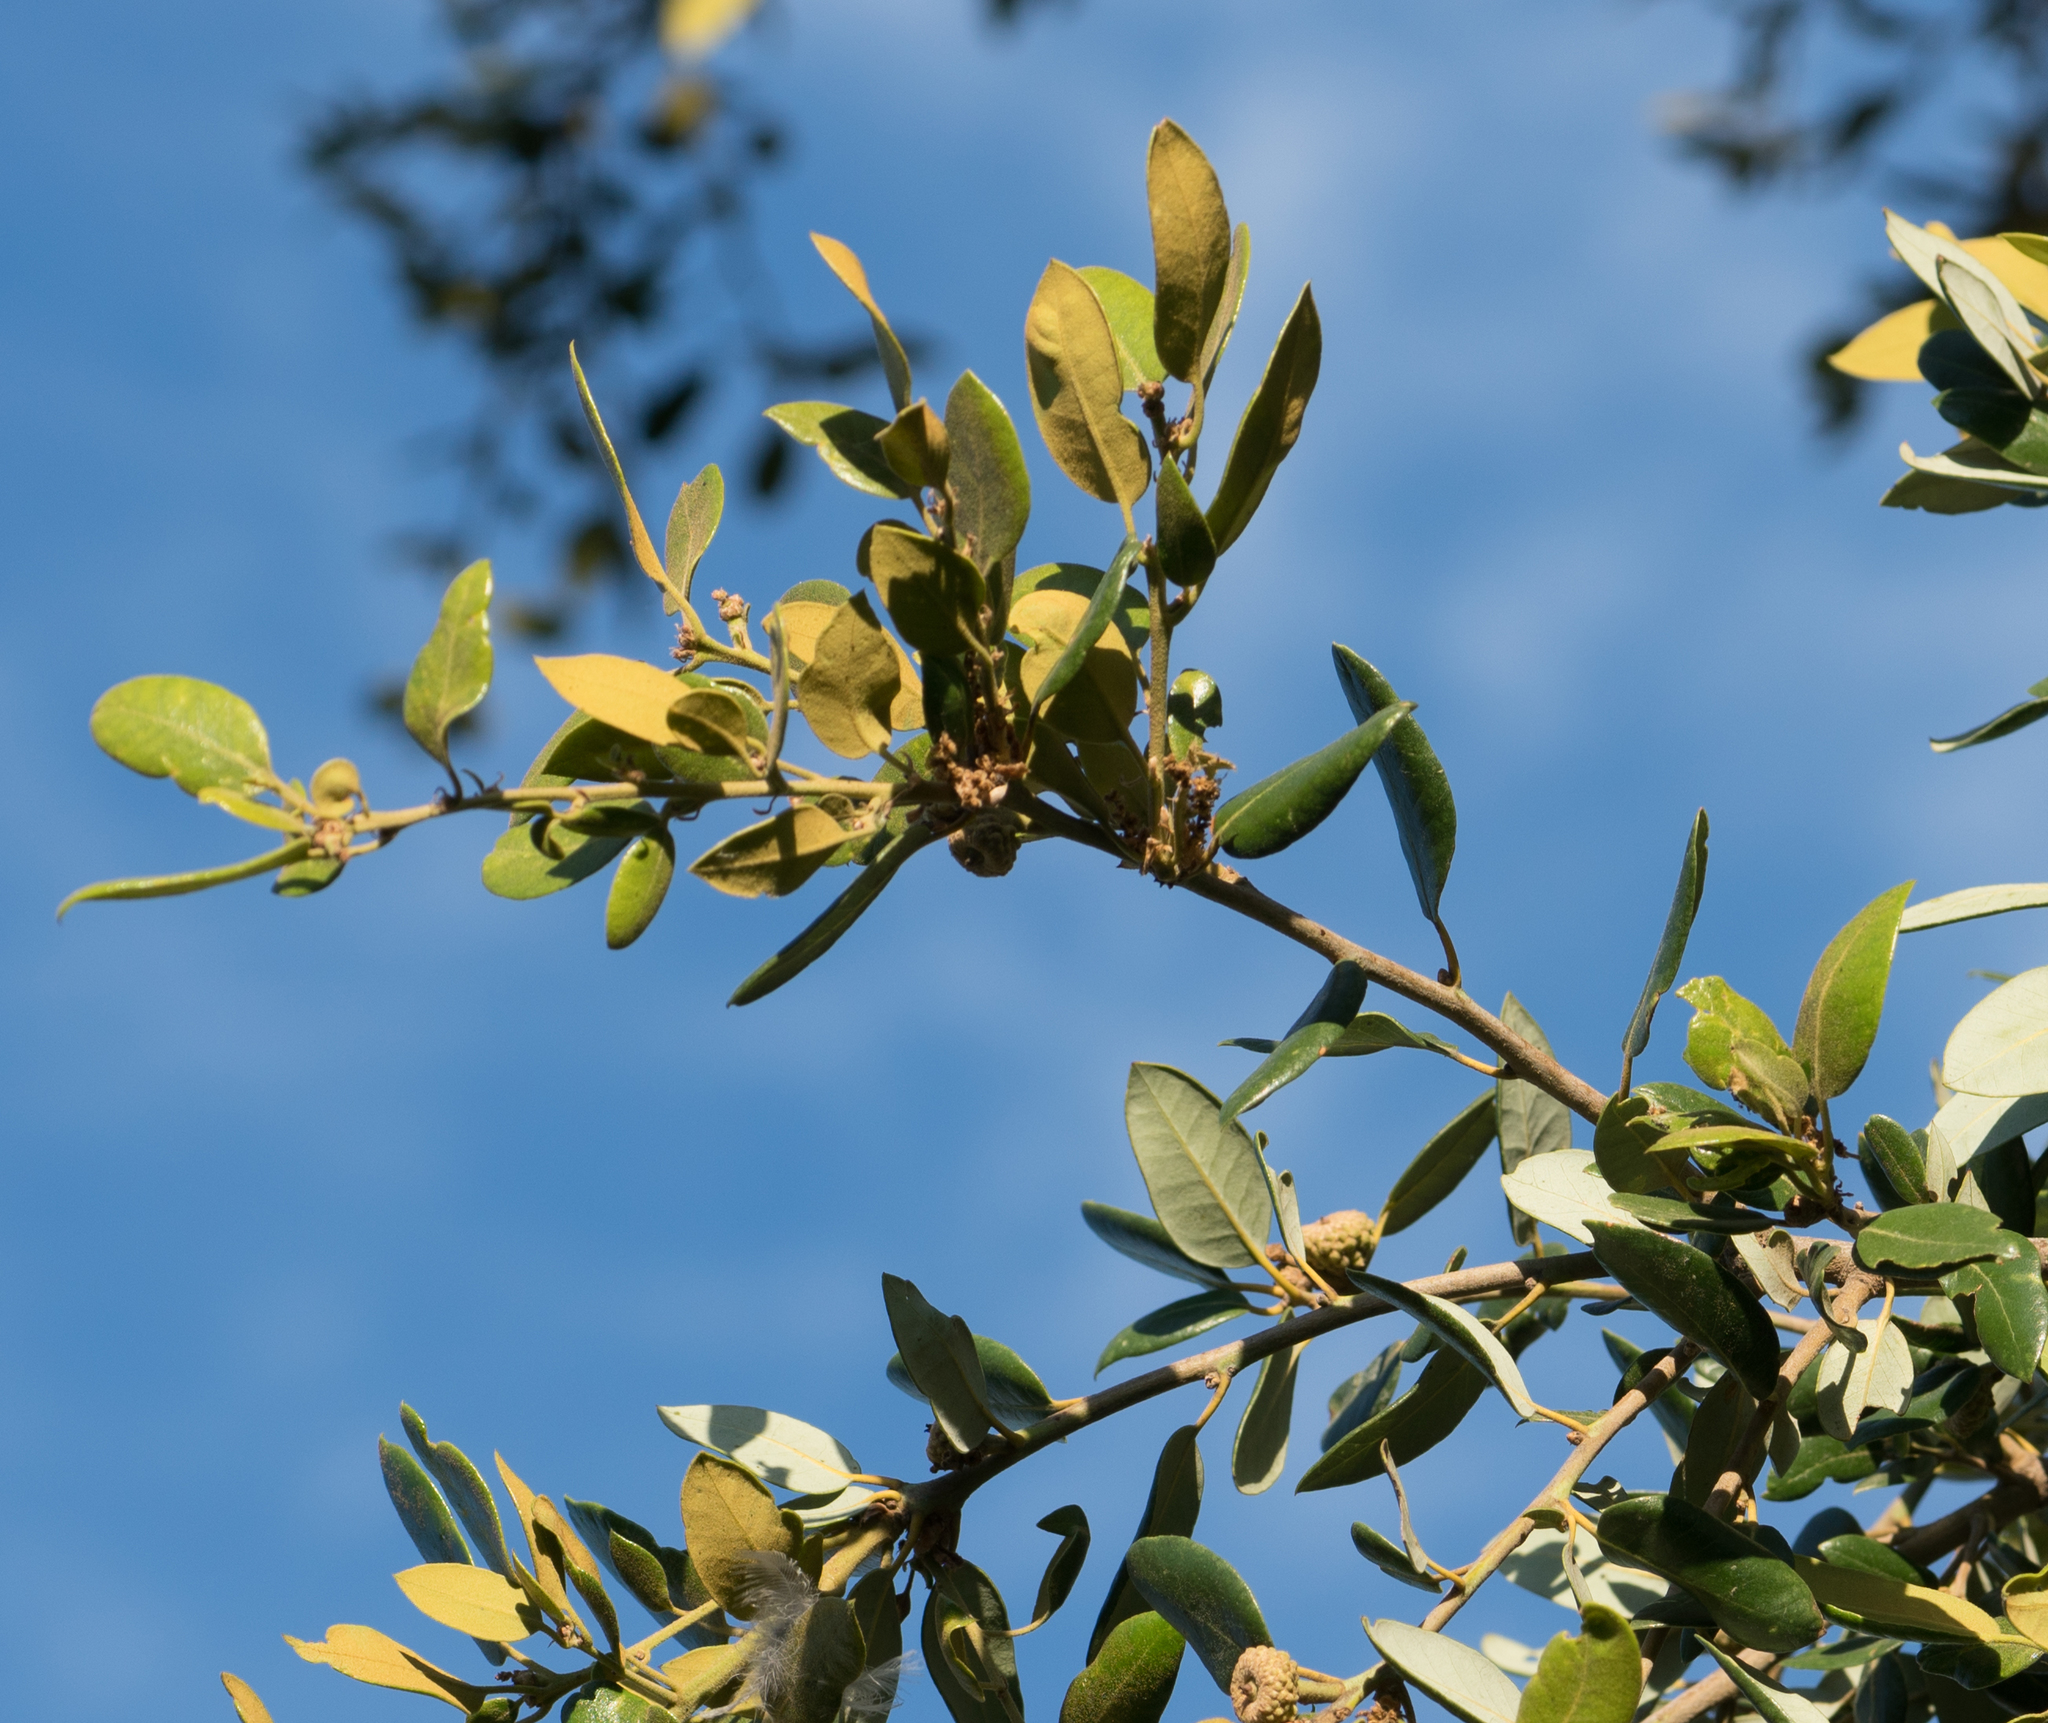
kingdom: Plantae
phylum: Tracheophyta
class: Magnoliopsida
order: Fagales
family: Fagaceae
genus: Quercus
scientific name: Quercus chrysolepis
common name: Canyon live oak
